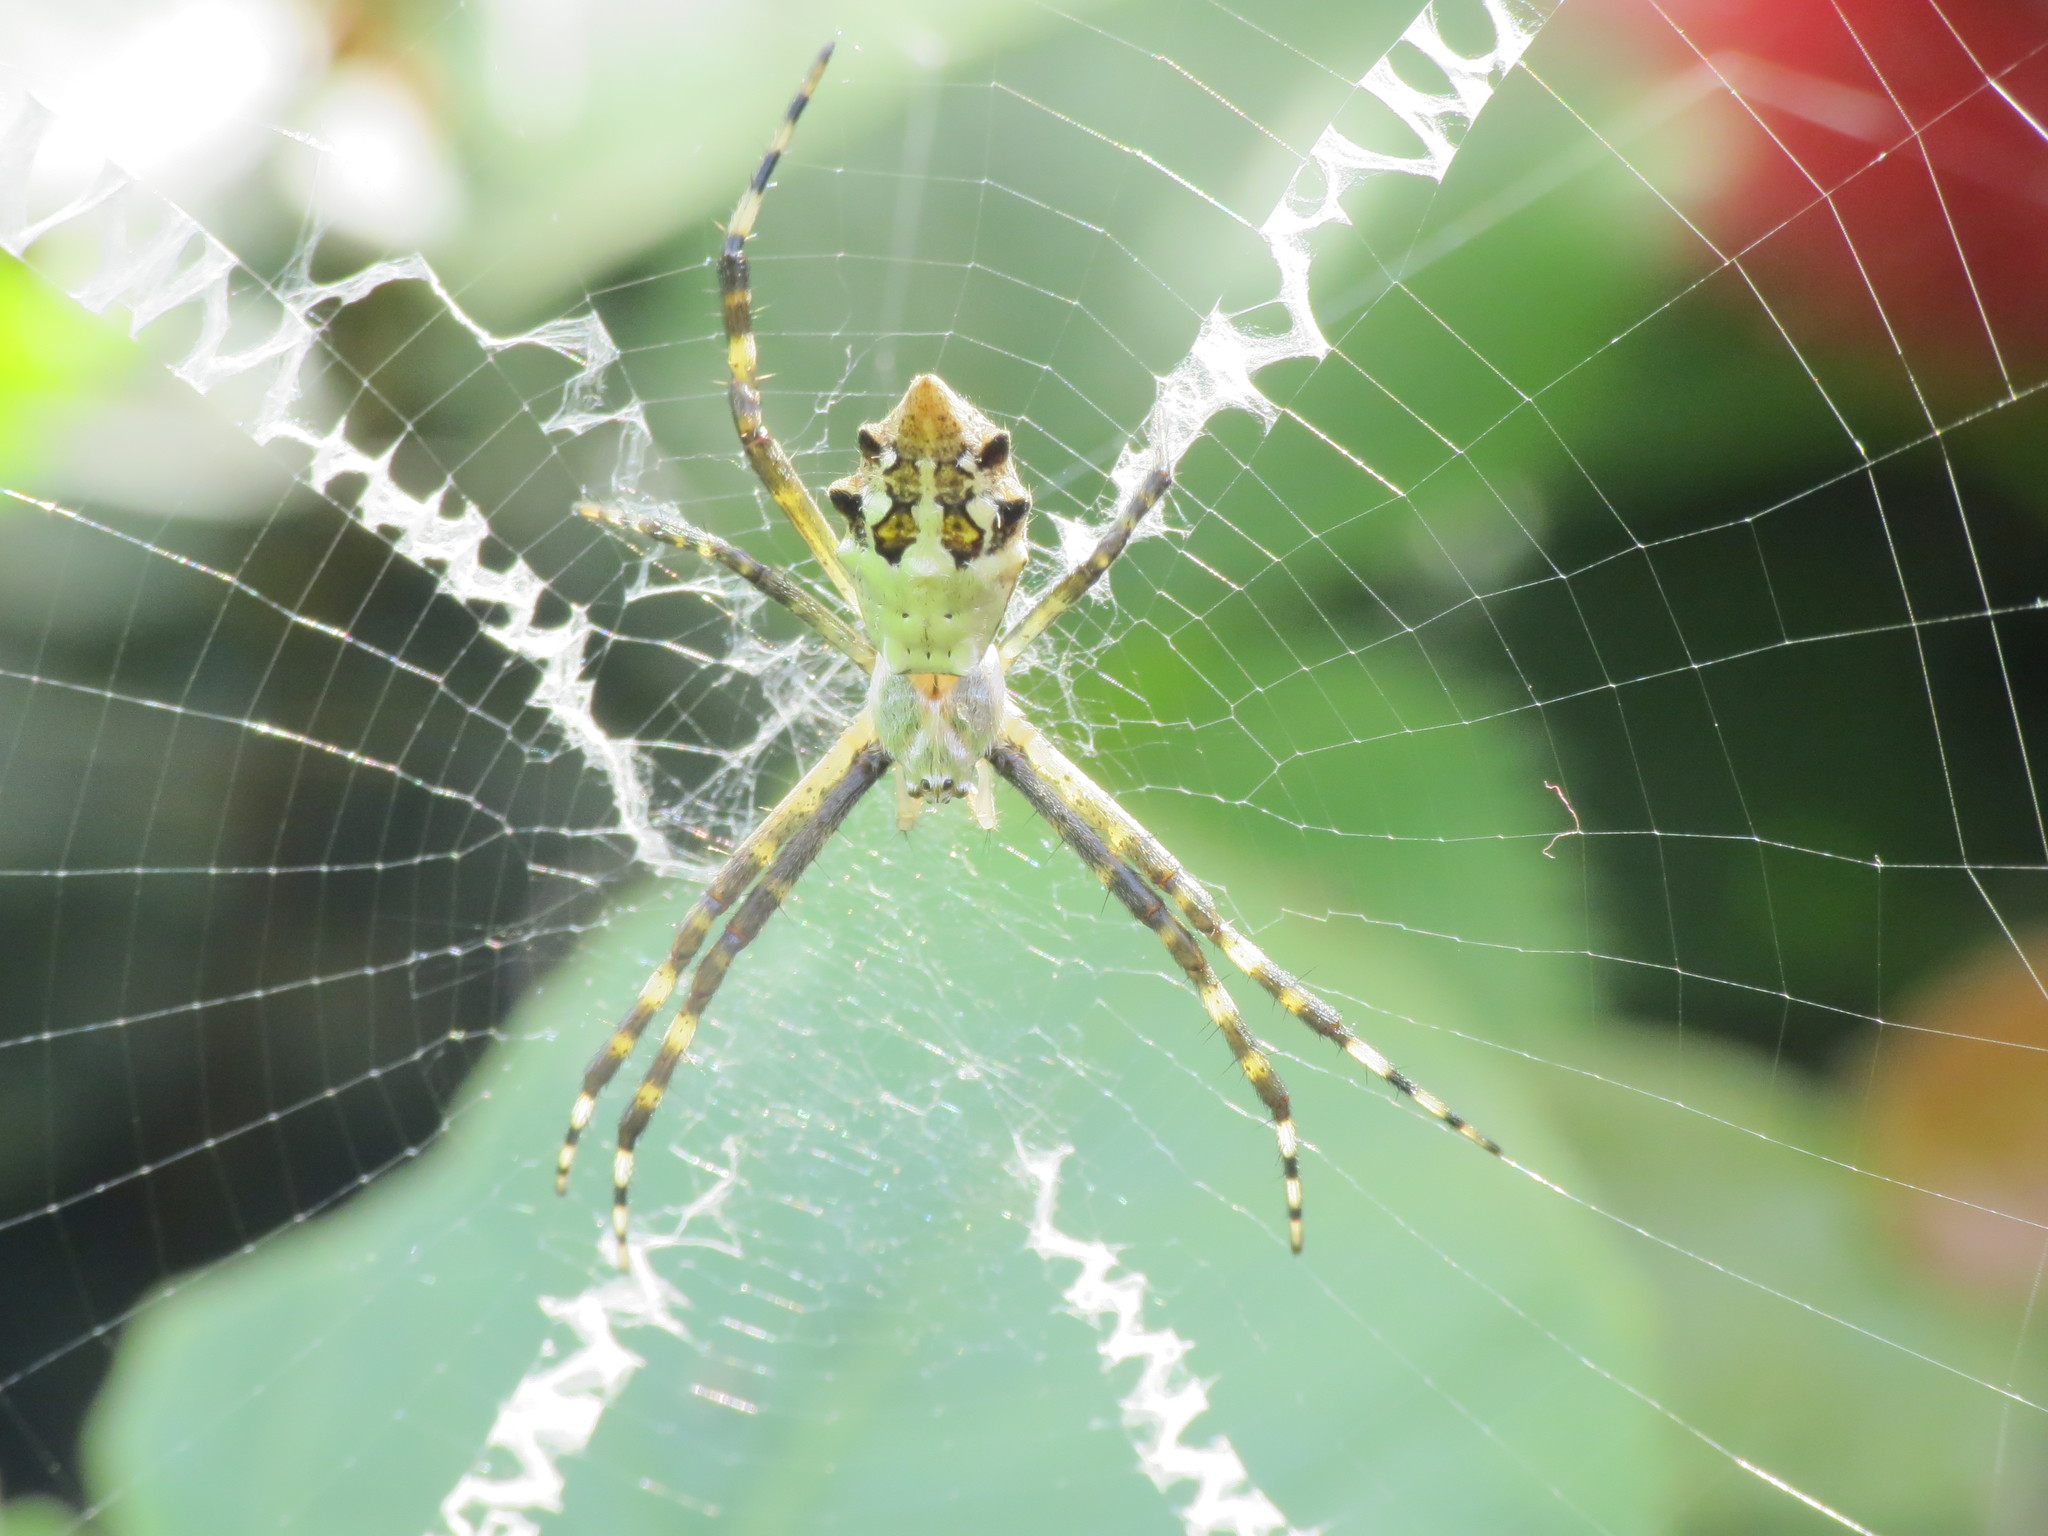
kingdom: Animalia
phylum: Arthropoda
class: Arachnida
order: Araneae
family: Araneidae
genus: Argiope
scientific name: Argiope argentata
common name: Orb weavers
